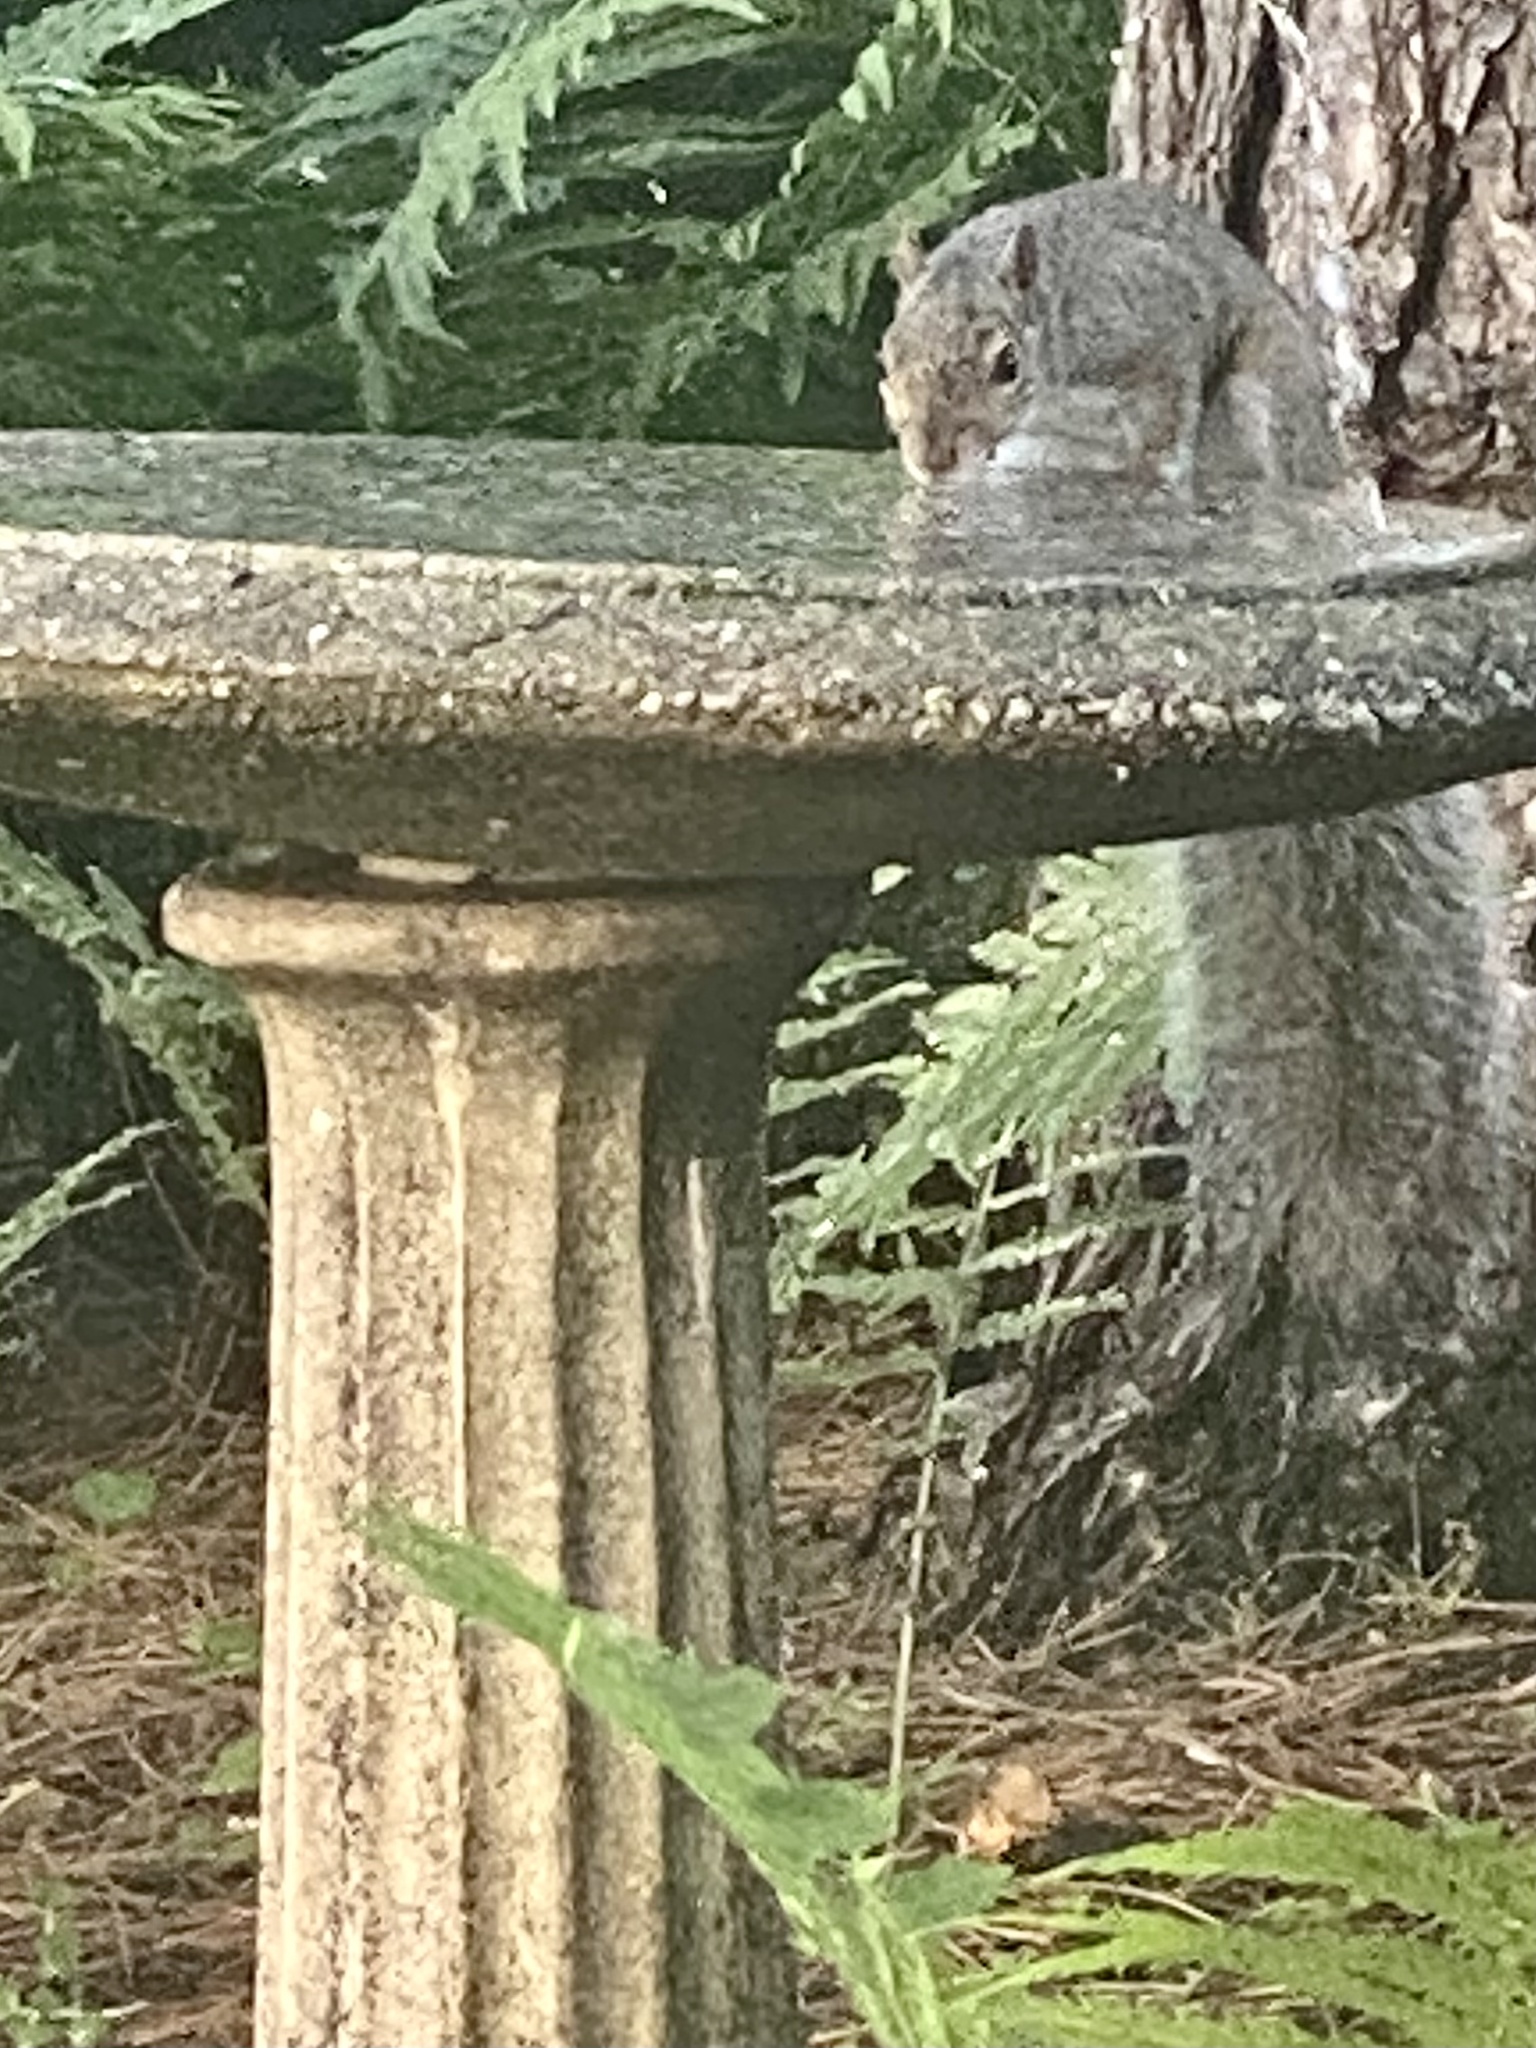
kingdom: Animalia
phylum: Chordata
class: Mammalia
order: Rodentia
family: Sciuridae
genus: Sciurus
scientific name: Sciurus carolinensis
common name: Eastern gray squirrel
